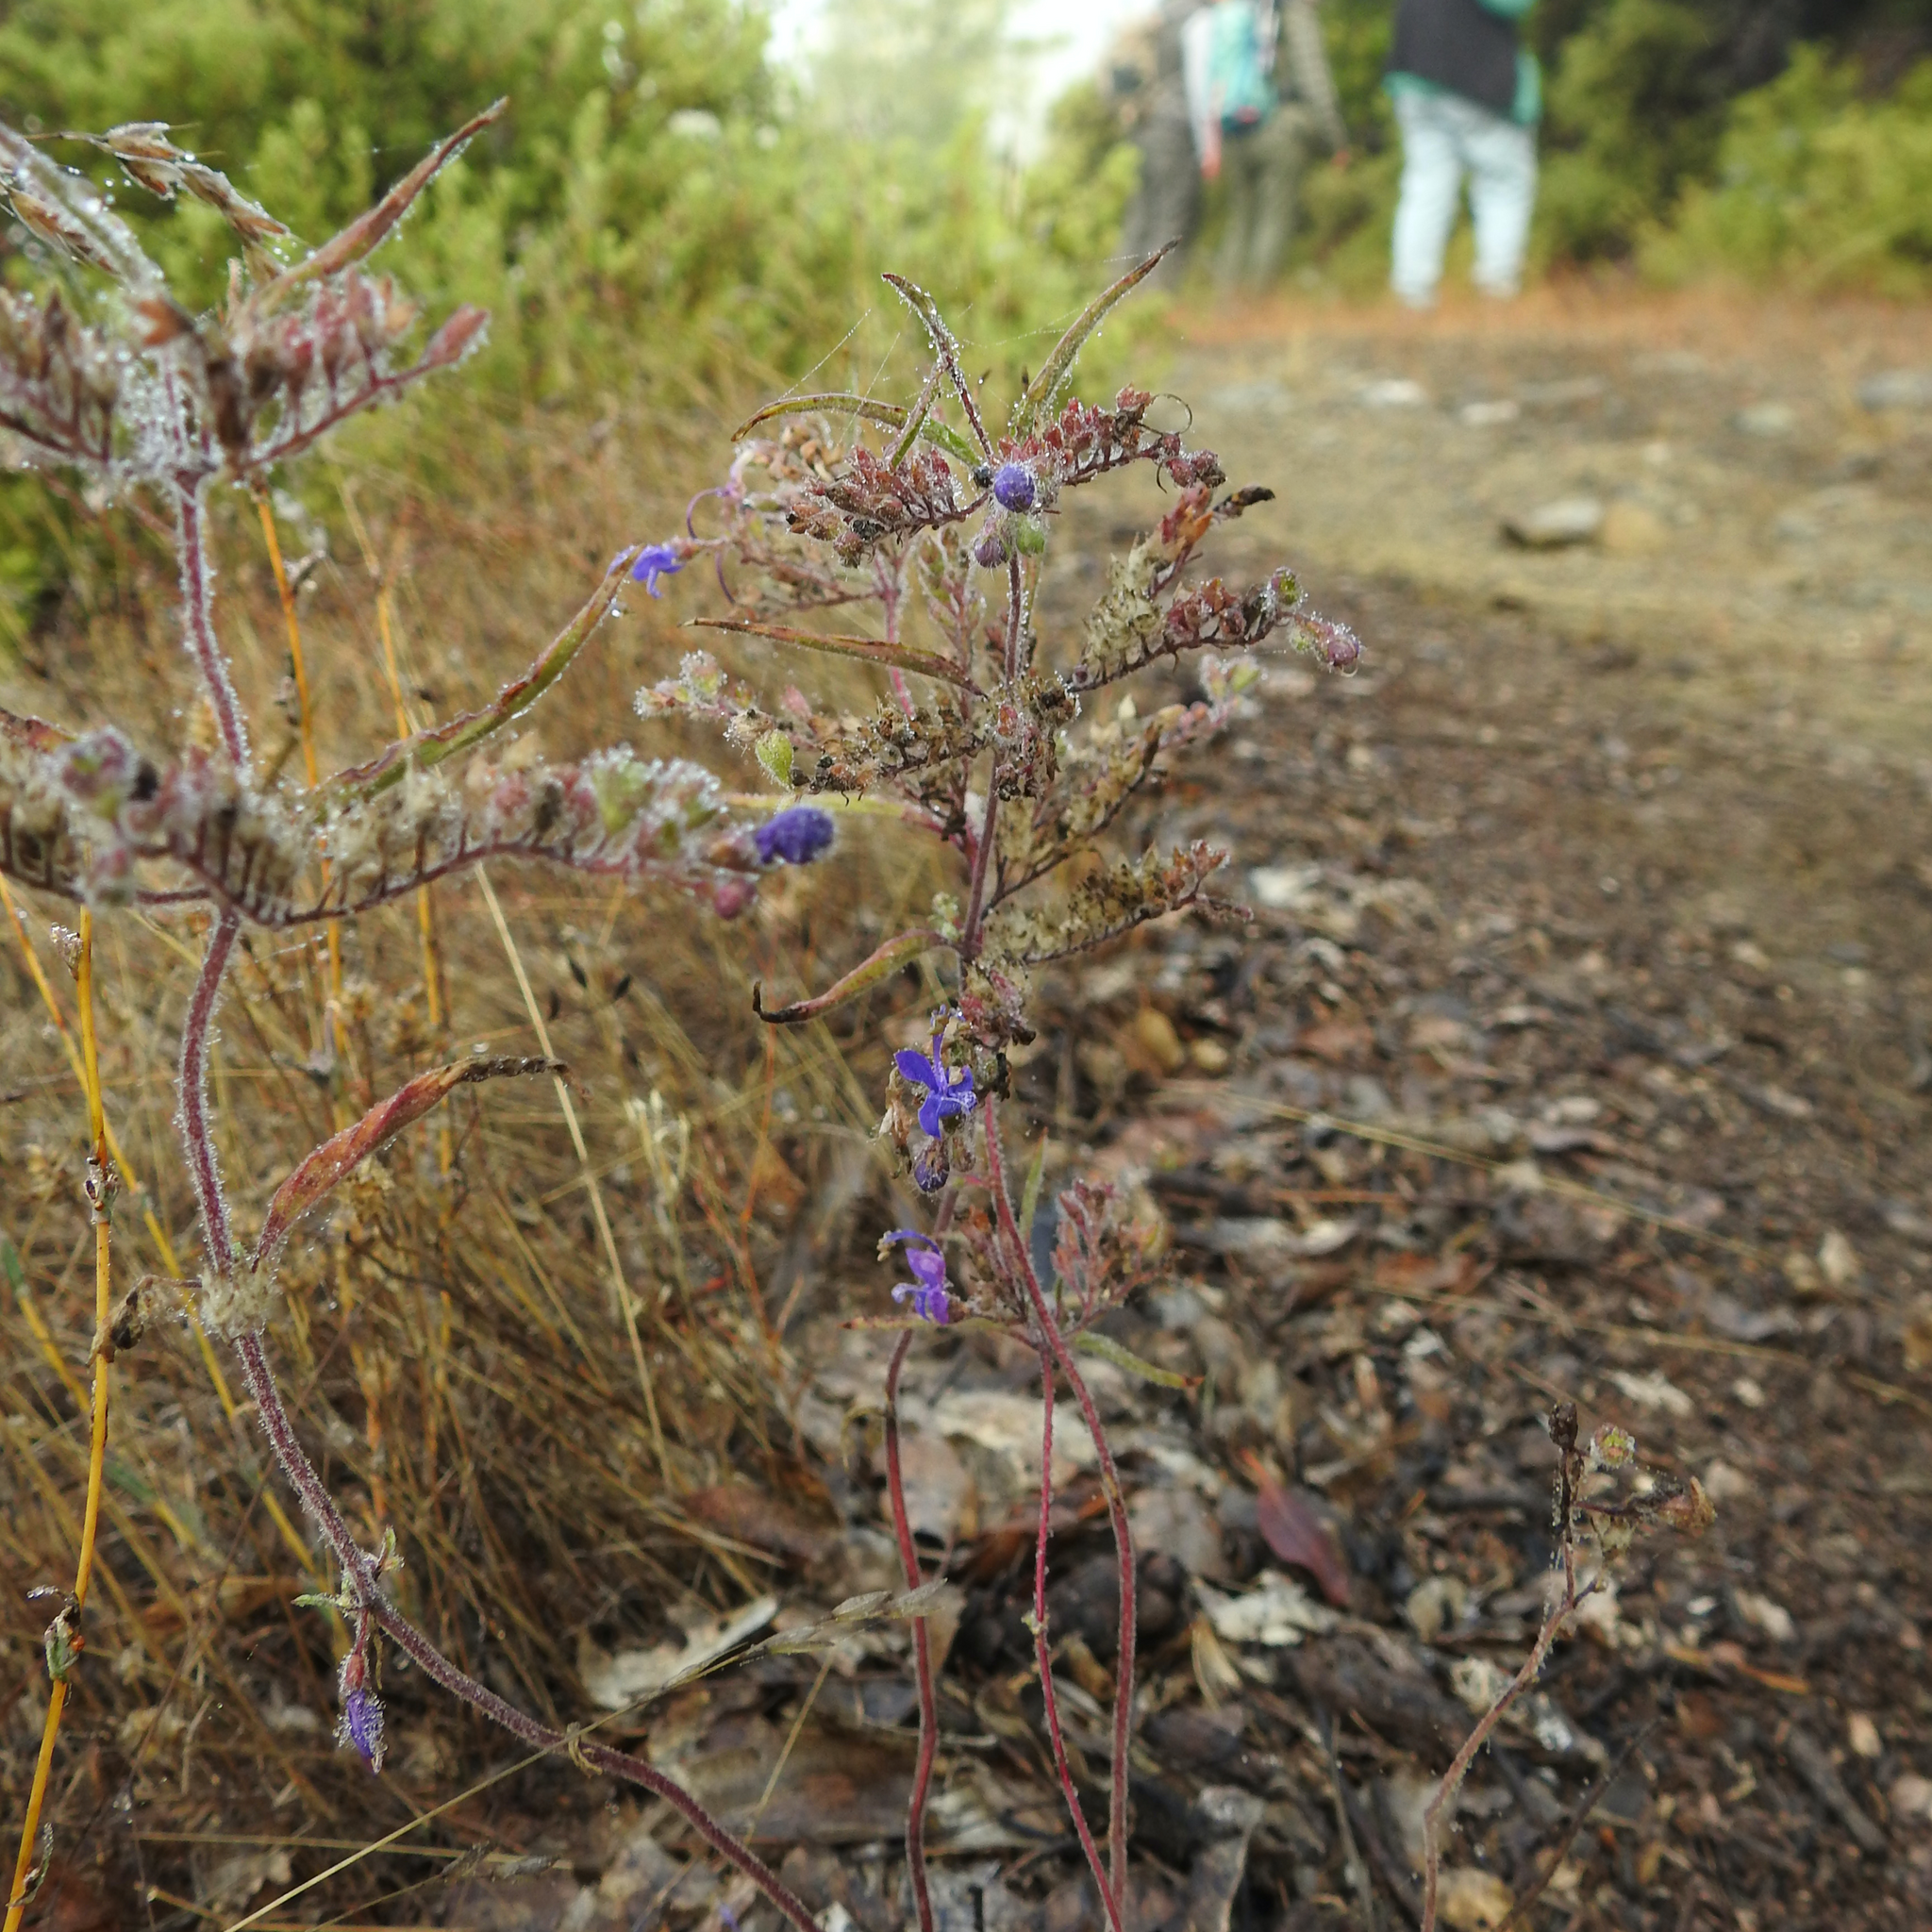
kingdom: Plantae
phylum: Tracheophyta
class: Magnoliopsida
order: Lamiales
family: Lamiaceae
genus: Trichostema
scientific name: Trichostema laxum
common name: Turpentine weed
